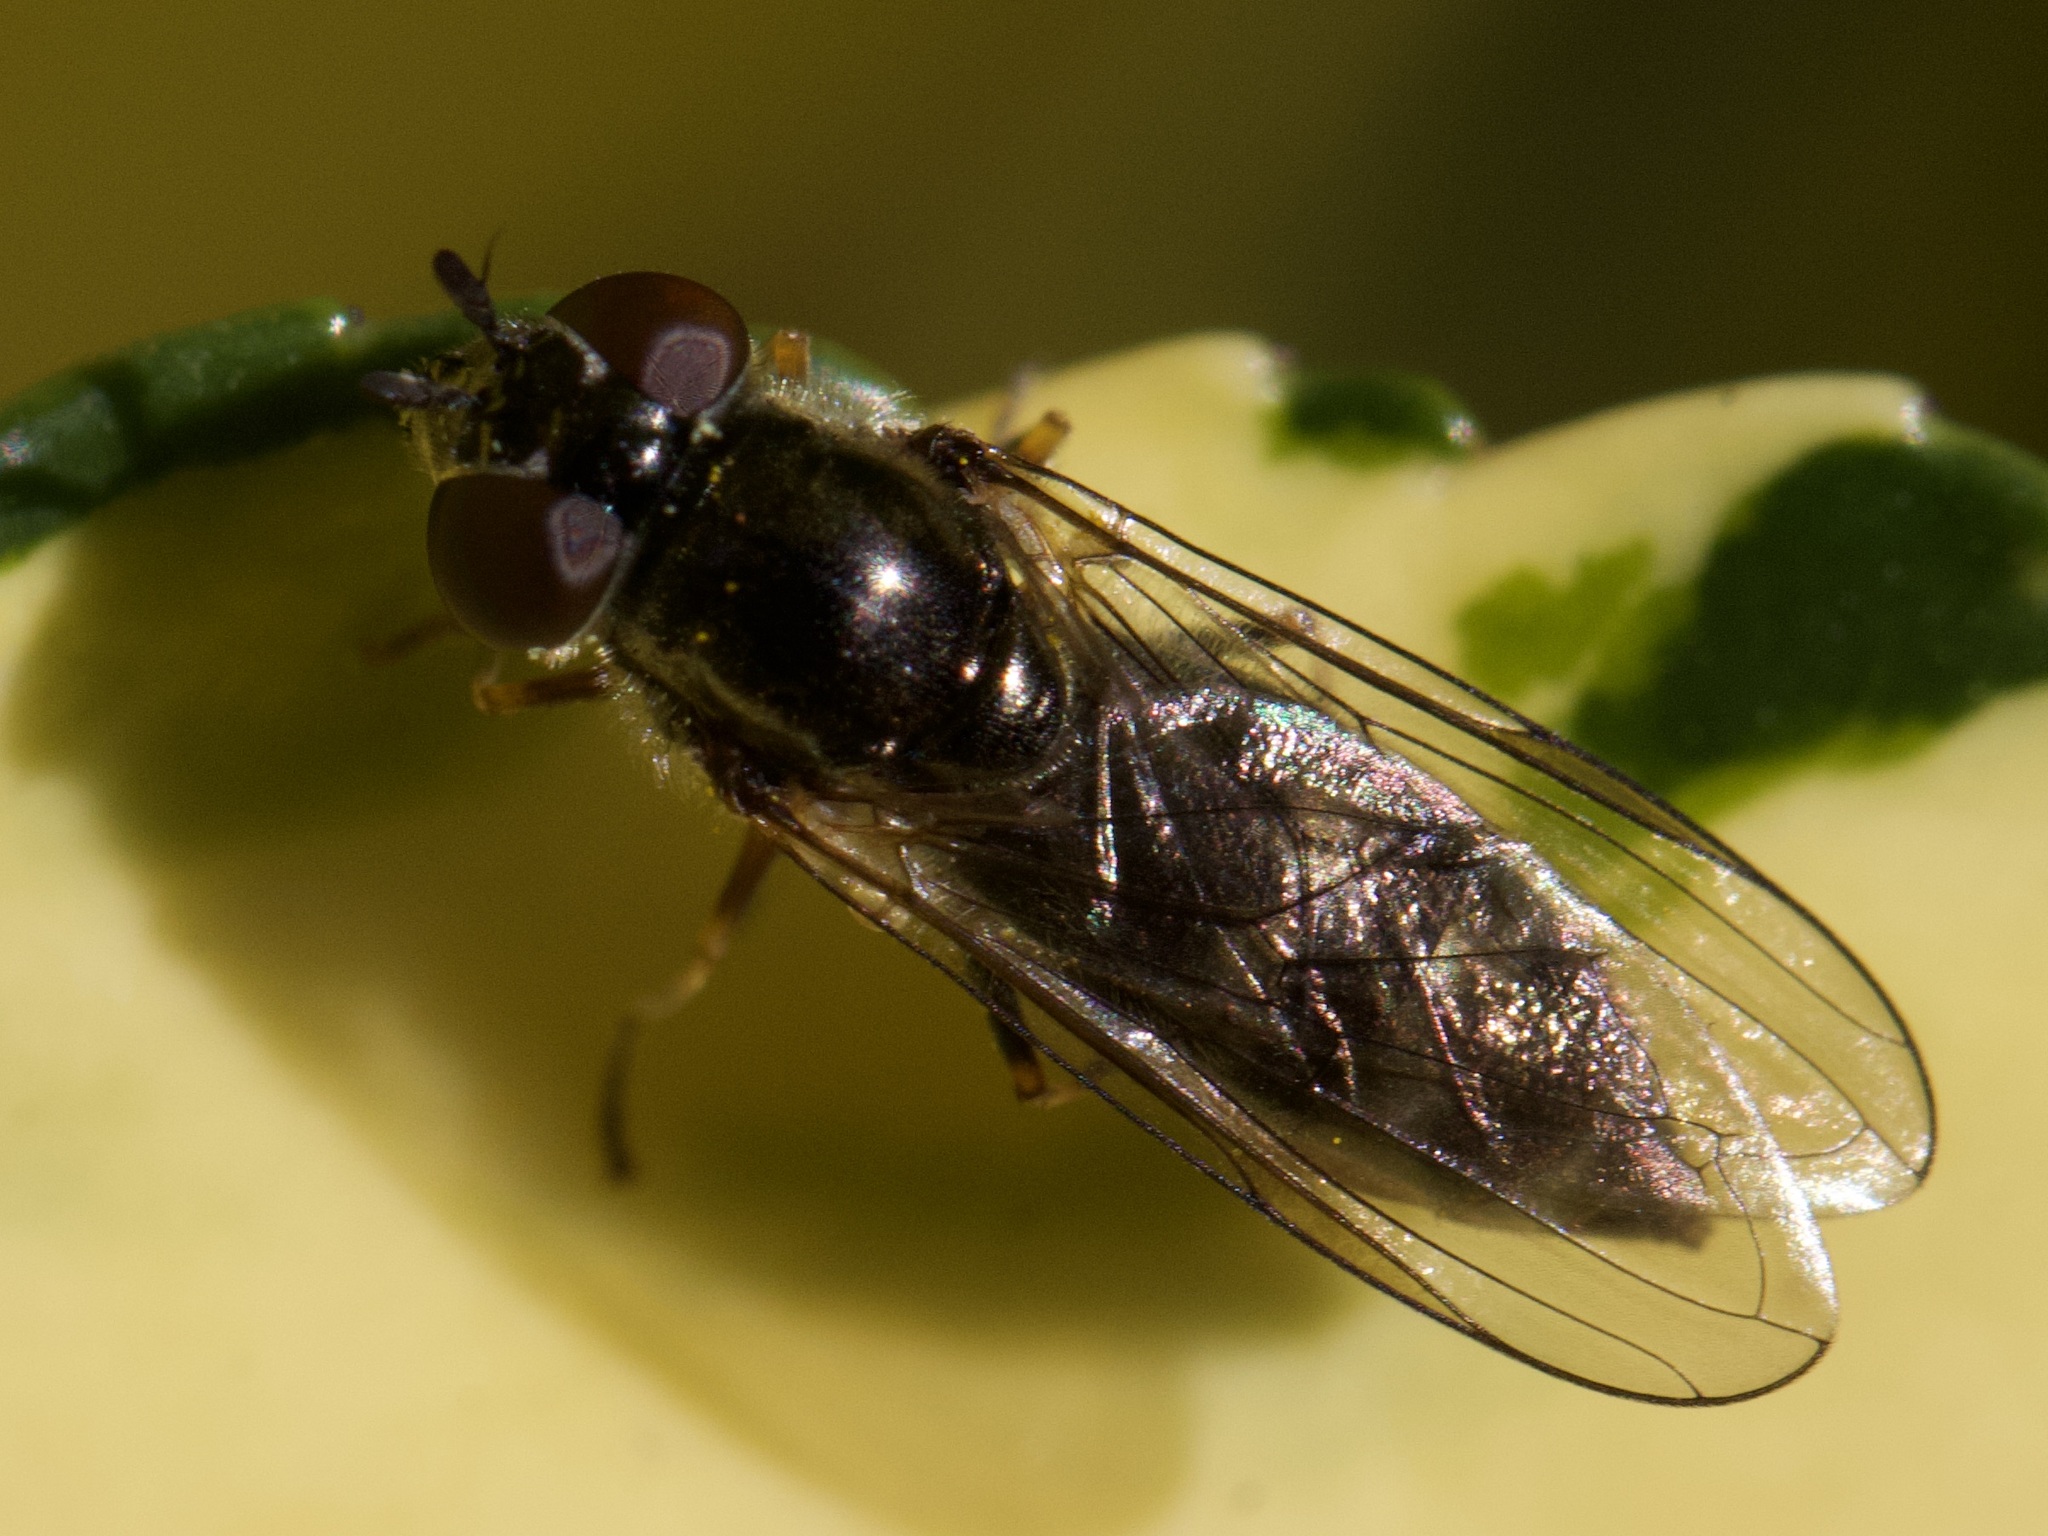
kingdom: Animalia
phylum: Arthropoda
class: Insecta
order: Diptera
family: Syrphidae
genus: Platycheirus
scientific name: Platycheirus albimanus
